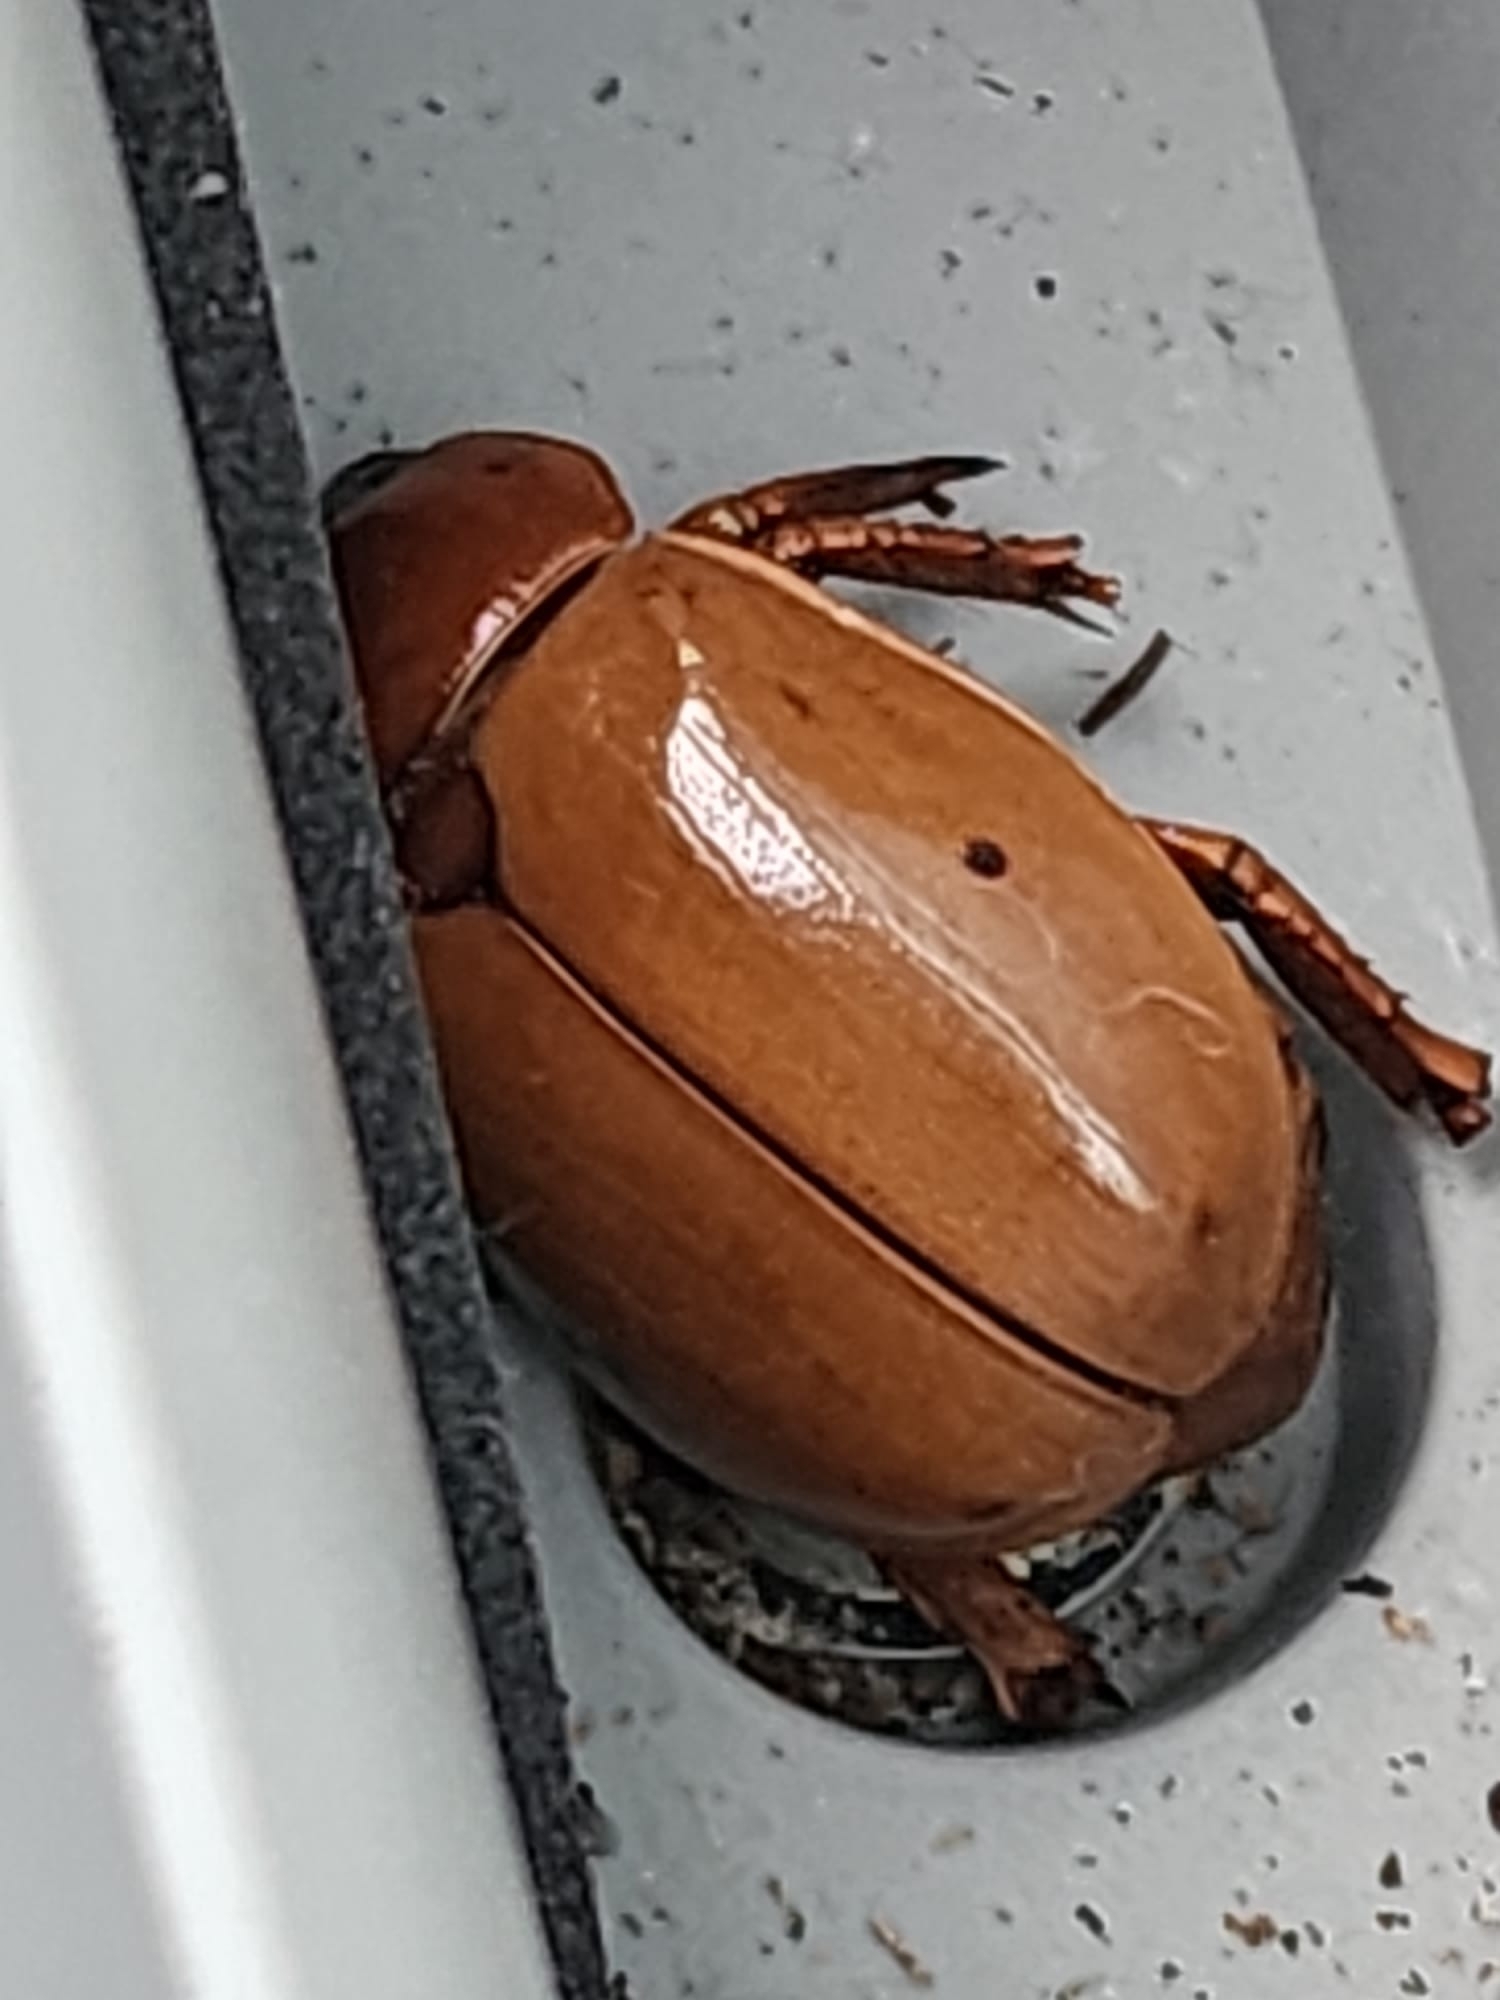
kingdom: Animalia
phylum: Arthropoda
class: Insecta
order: Coleoptera
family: Scarabaeidae
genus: Pelidnota
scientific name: Pelidnota punctata
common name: Grapevine beetle
